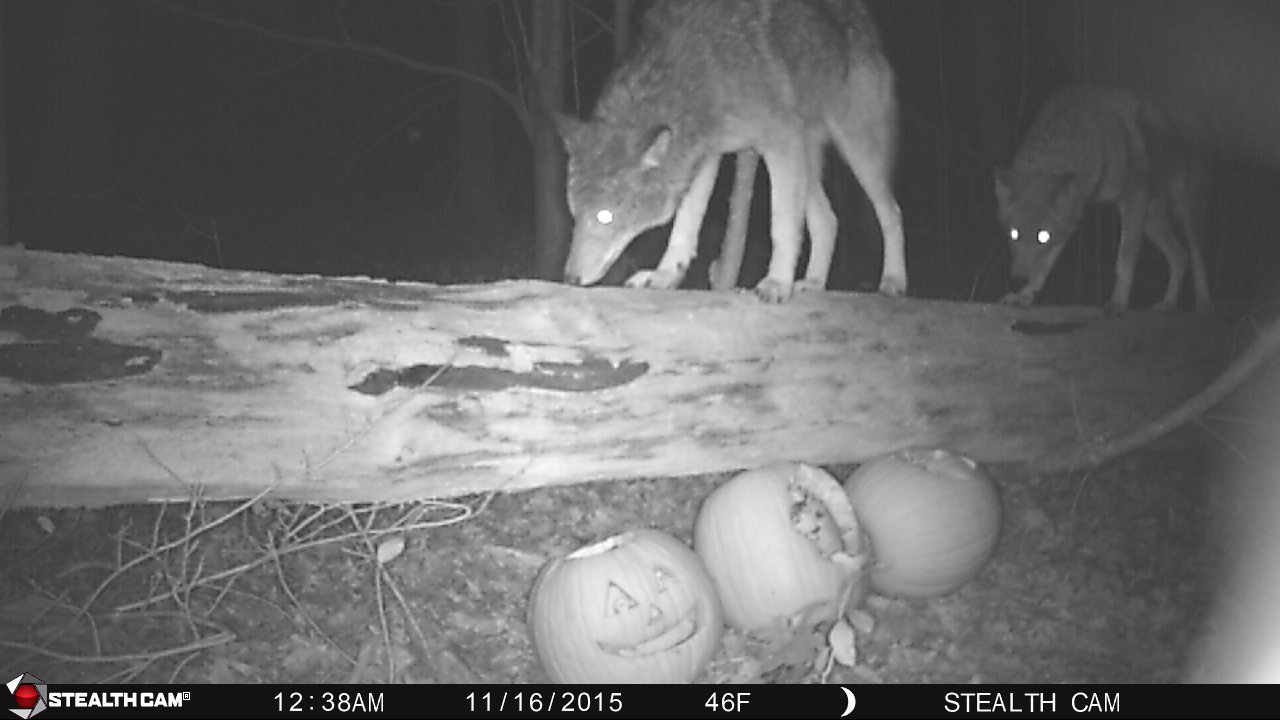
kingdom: Animalia
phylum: Chordata
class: Mammalia
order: Carnivora
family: Canidae
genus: Canis
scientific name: Canis latrans
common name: Coyote
